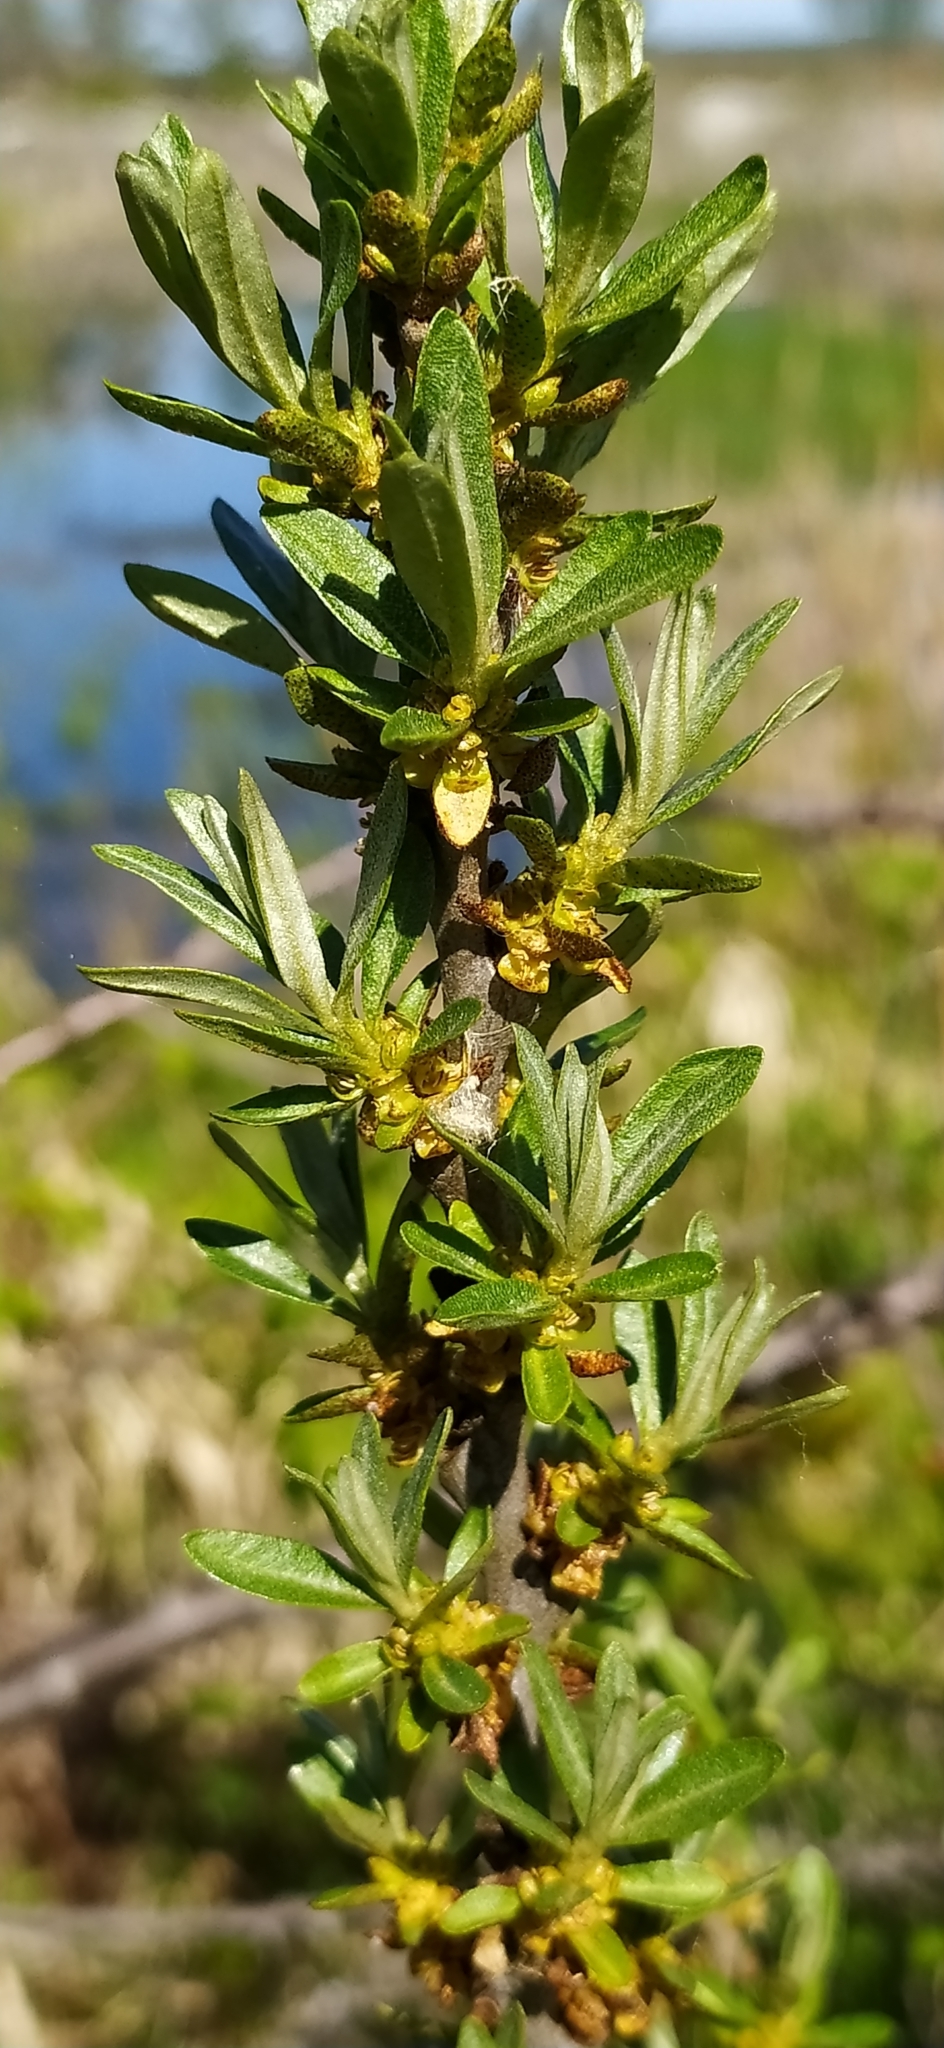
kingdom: Plantae
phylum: Tracheophyta
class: Magnoliopsida
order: Rosales
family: Elaeagnaceae
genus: Hippophae
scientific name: Hippophae rhamnoides
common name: Sea-buckthorn
